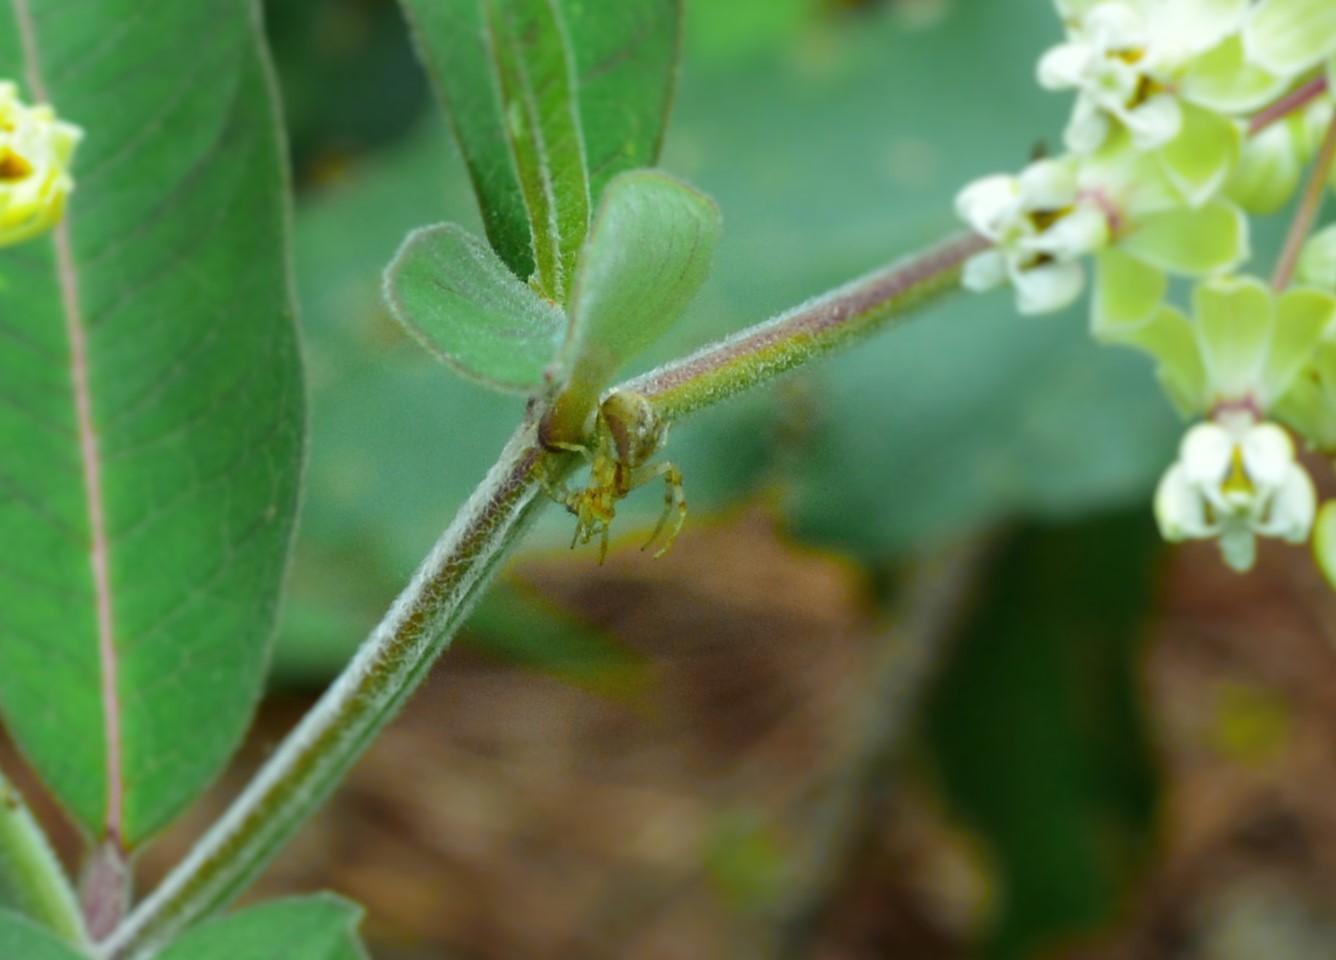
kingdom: Plantae
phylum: Tracheophyta
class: Magnoliopsida
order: Gentianales
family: Apocynaceae
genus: Asclepias
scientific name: Asclepias similis
